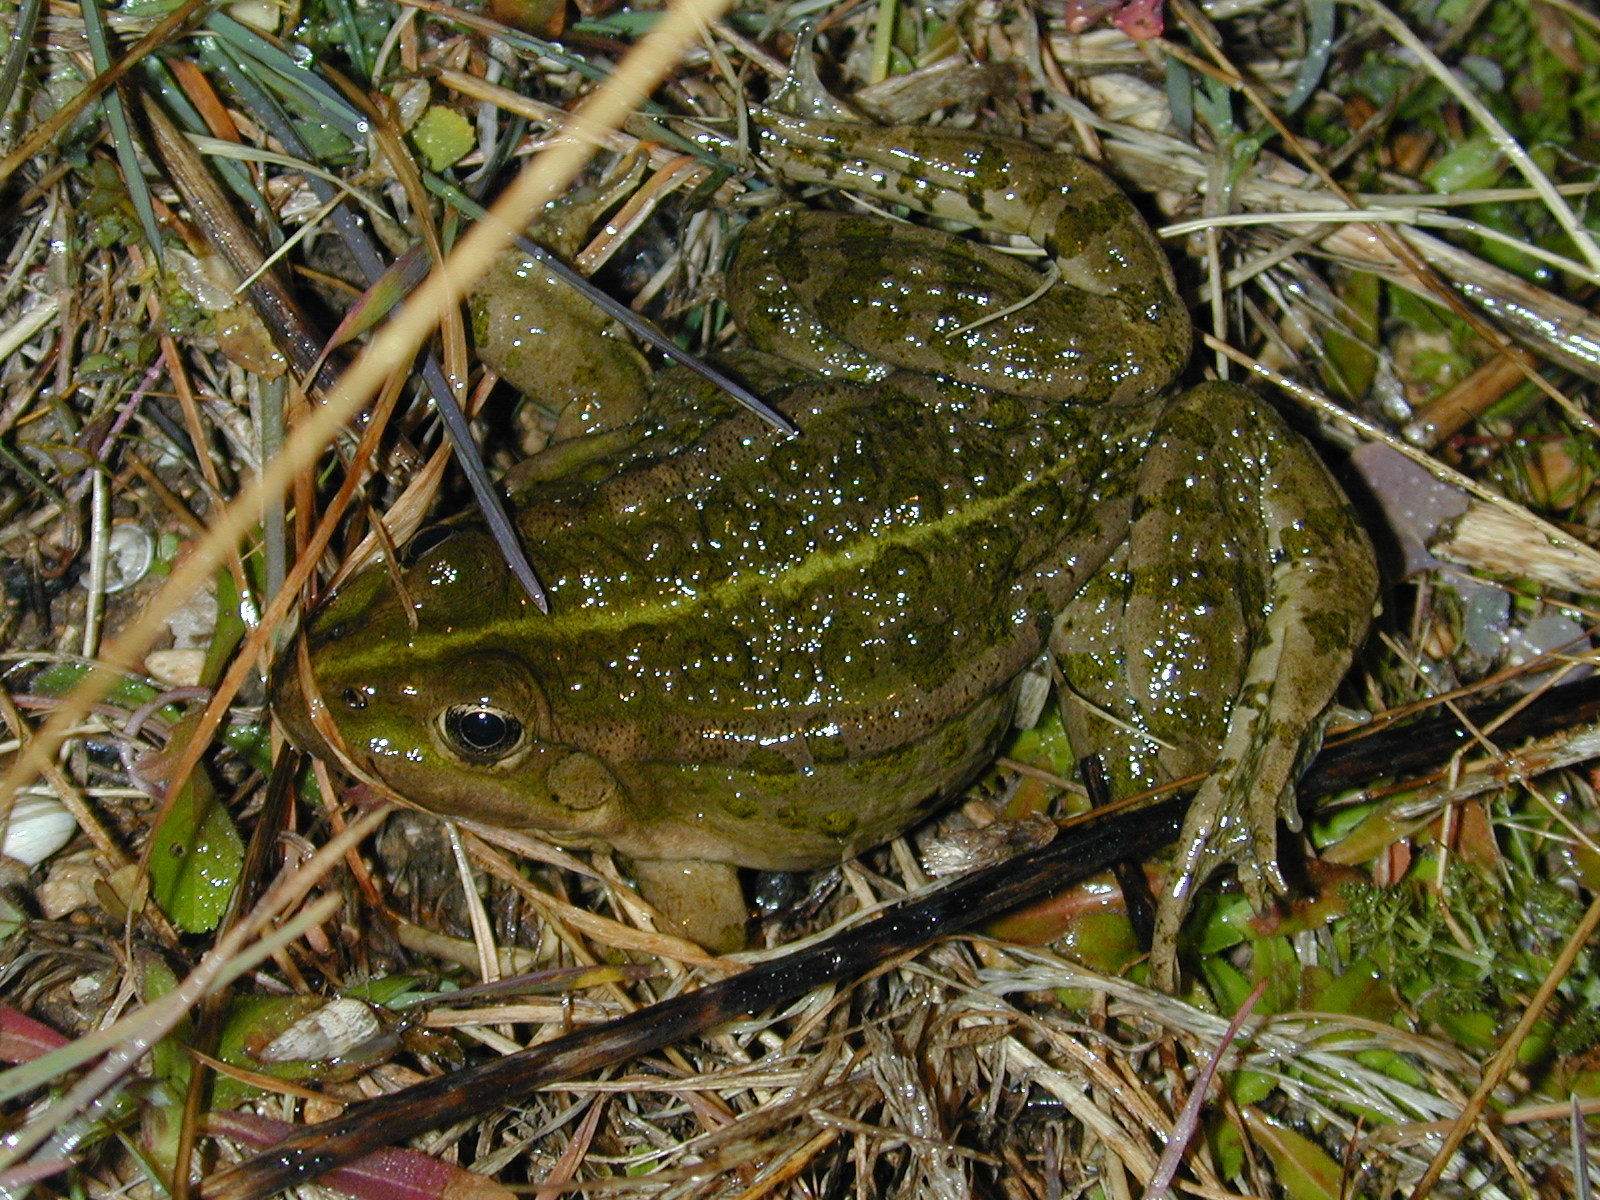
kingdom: Animalia
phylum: Chordata
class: Amphibia
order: Anura
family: Ranidae
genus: Pelophylax
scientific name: Pelophylax ridibundus
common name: Marsh frog
